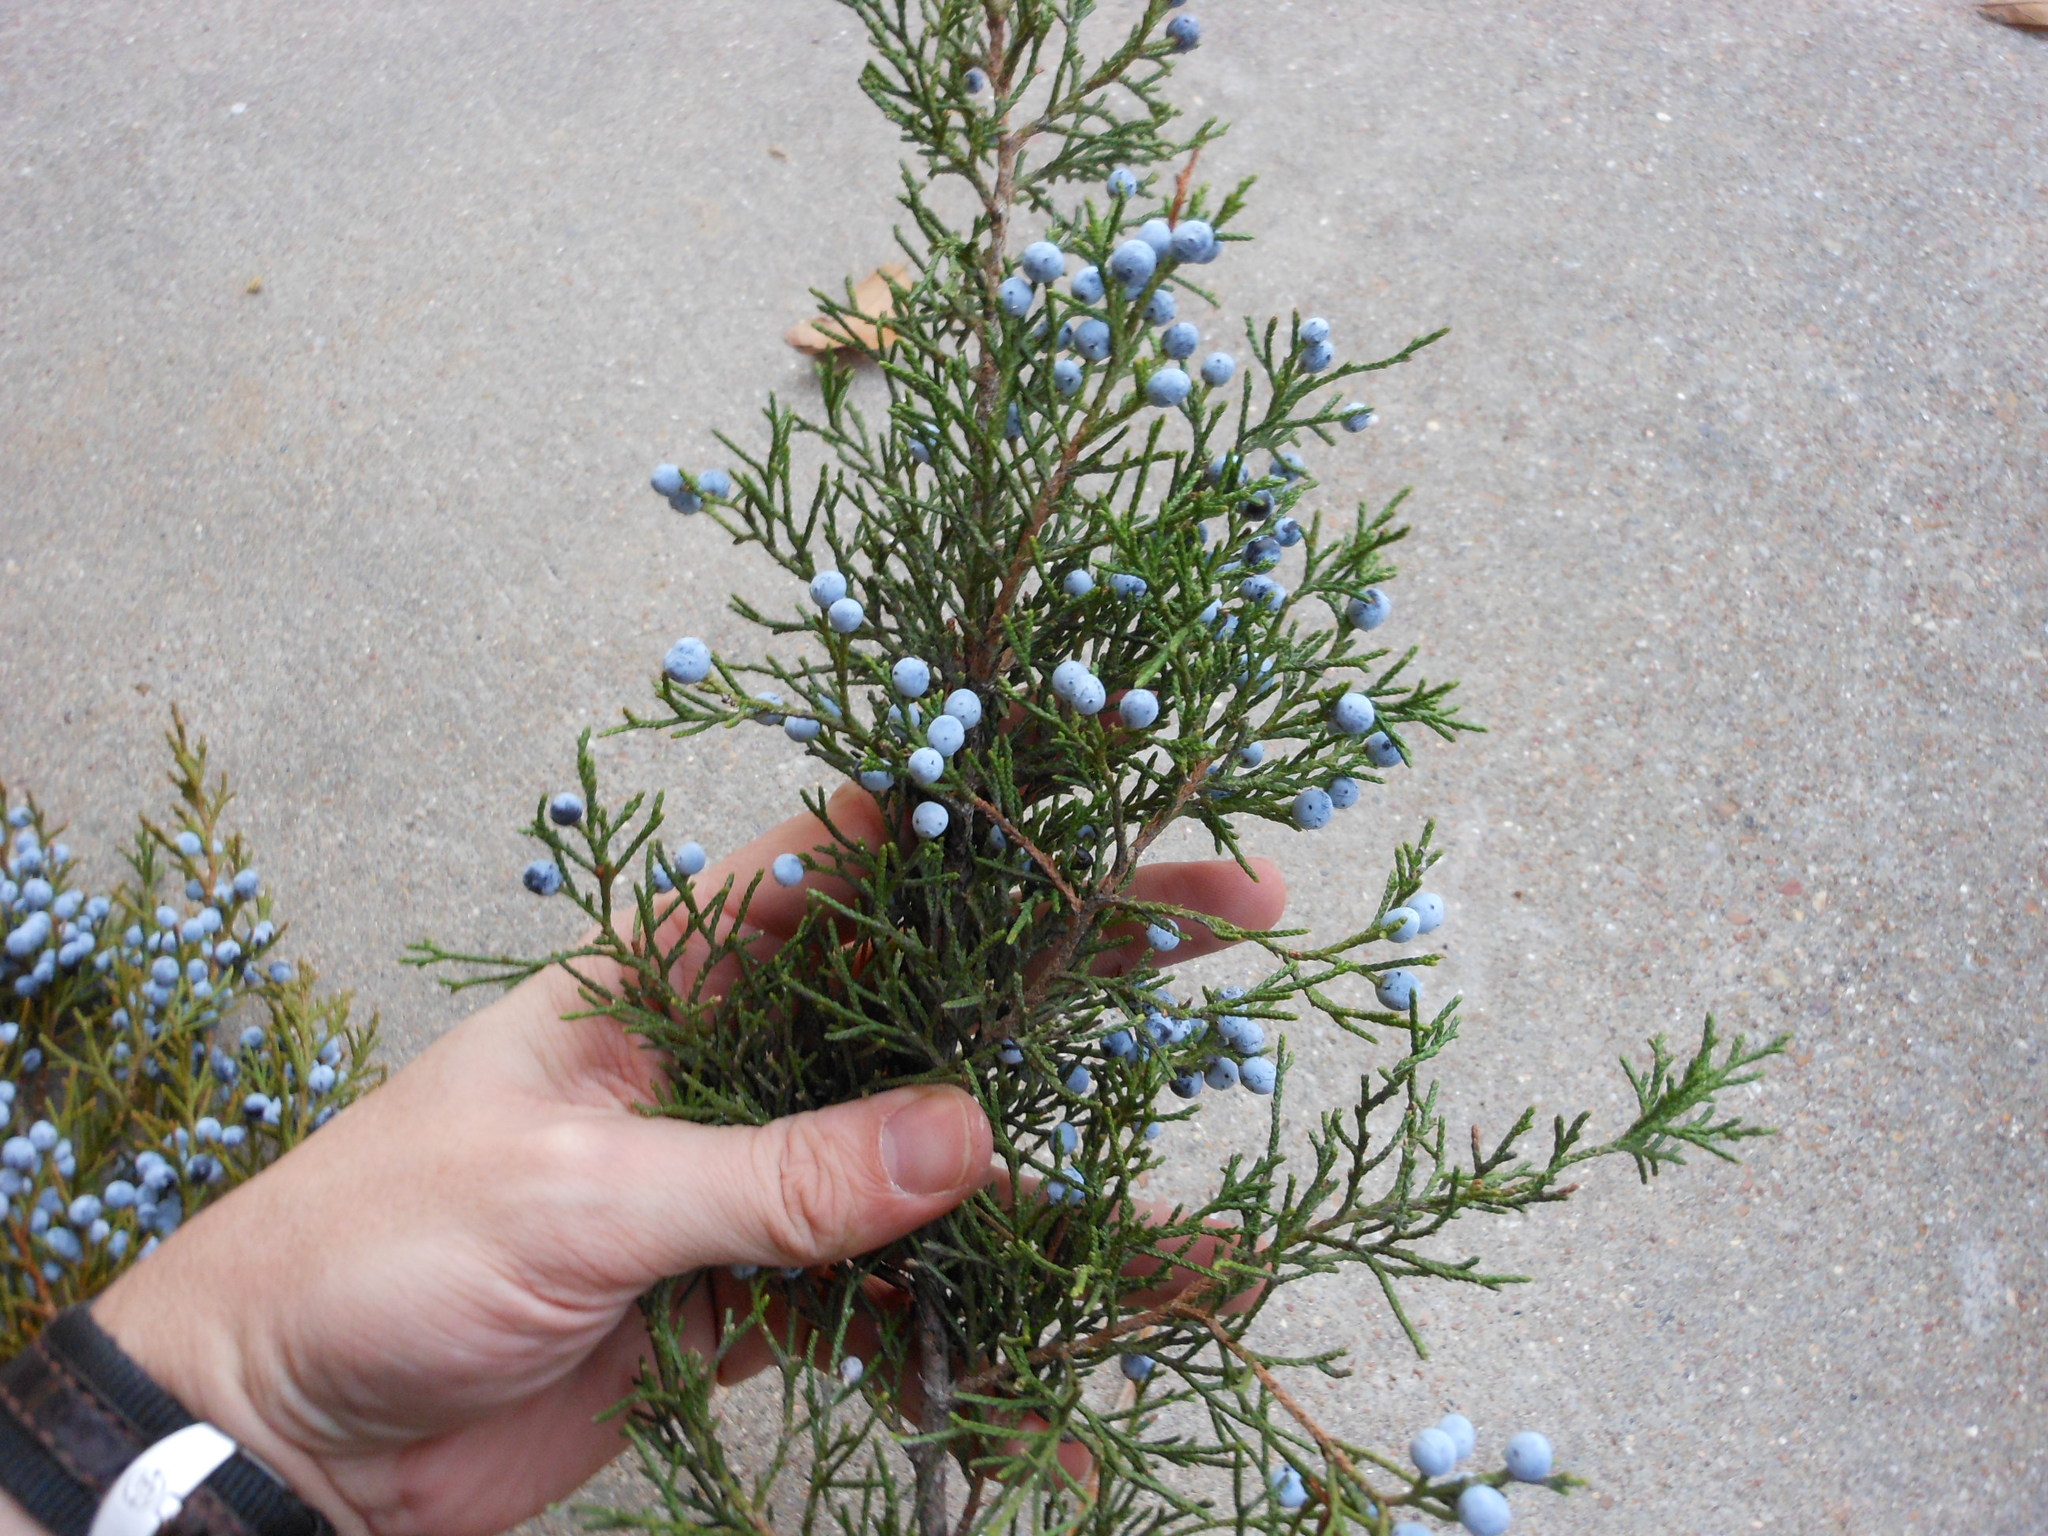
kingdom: Plantae
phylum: Tracheophyta
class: Pinopsida
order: Pinales
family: Cupressaceae
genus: Juniperus
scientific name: Juniperus virginiana
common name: Red juniper
